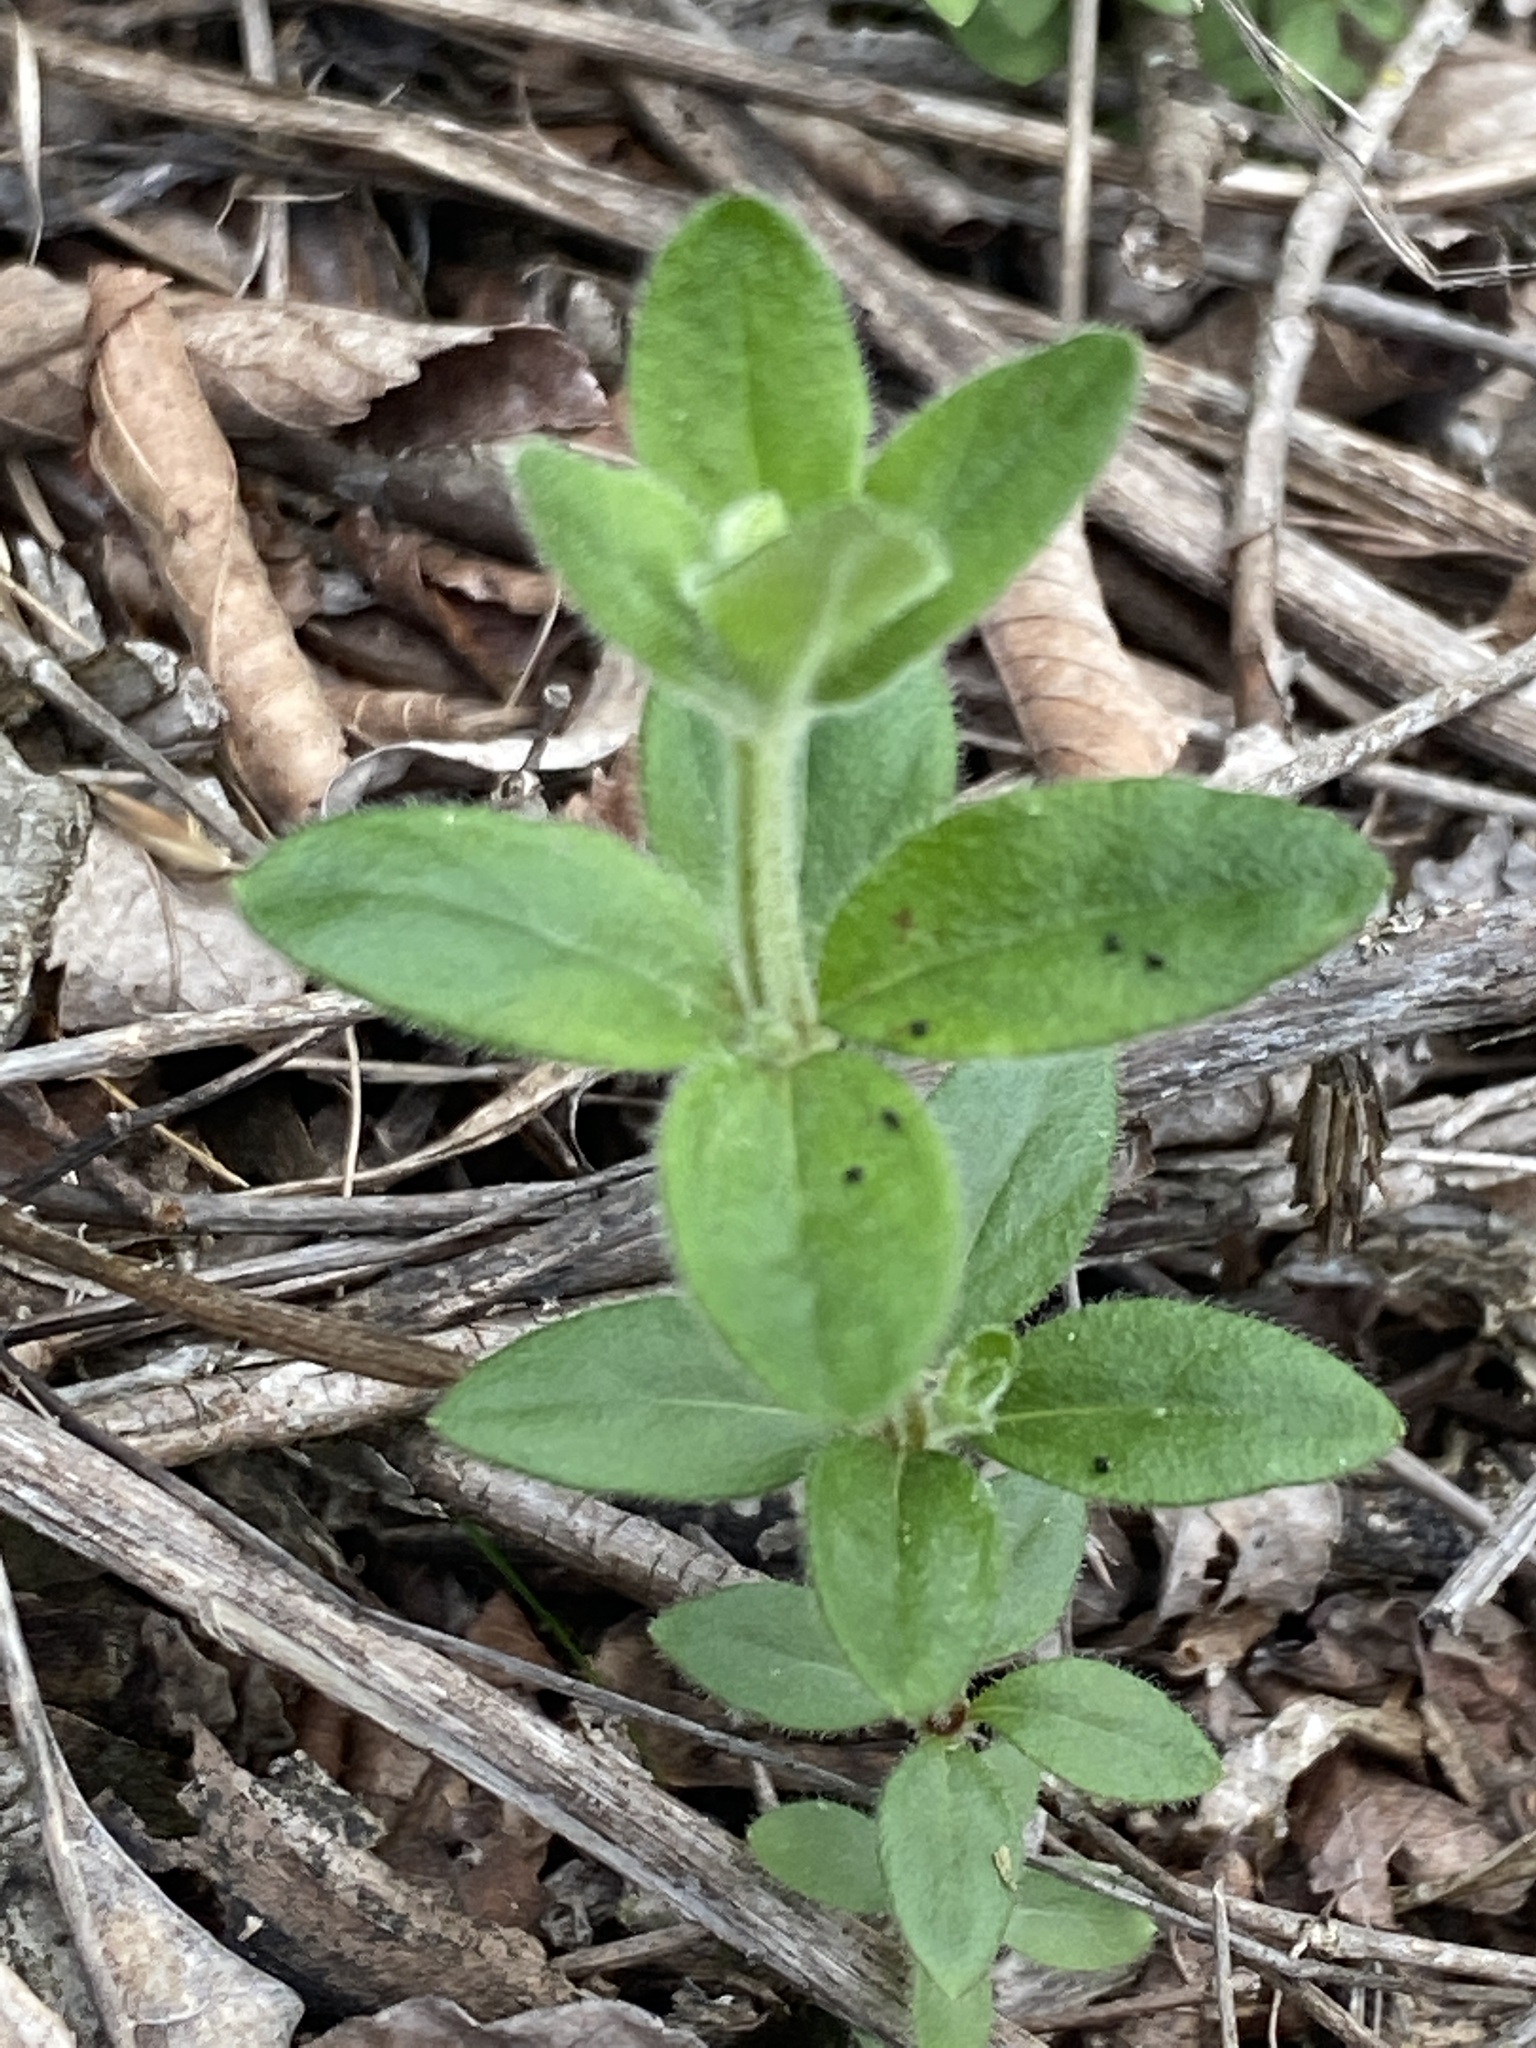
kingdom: Plantae
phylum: Tracheophyta
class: Magnoliopsida
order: Gentianales
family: Rubiaceae
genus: Galium
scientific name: Galium pilosum
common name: Hairy bedstraw
